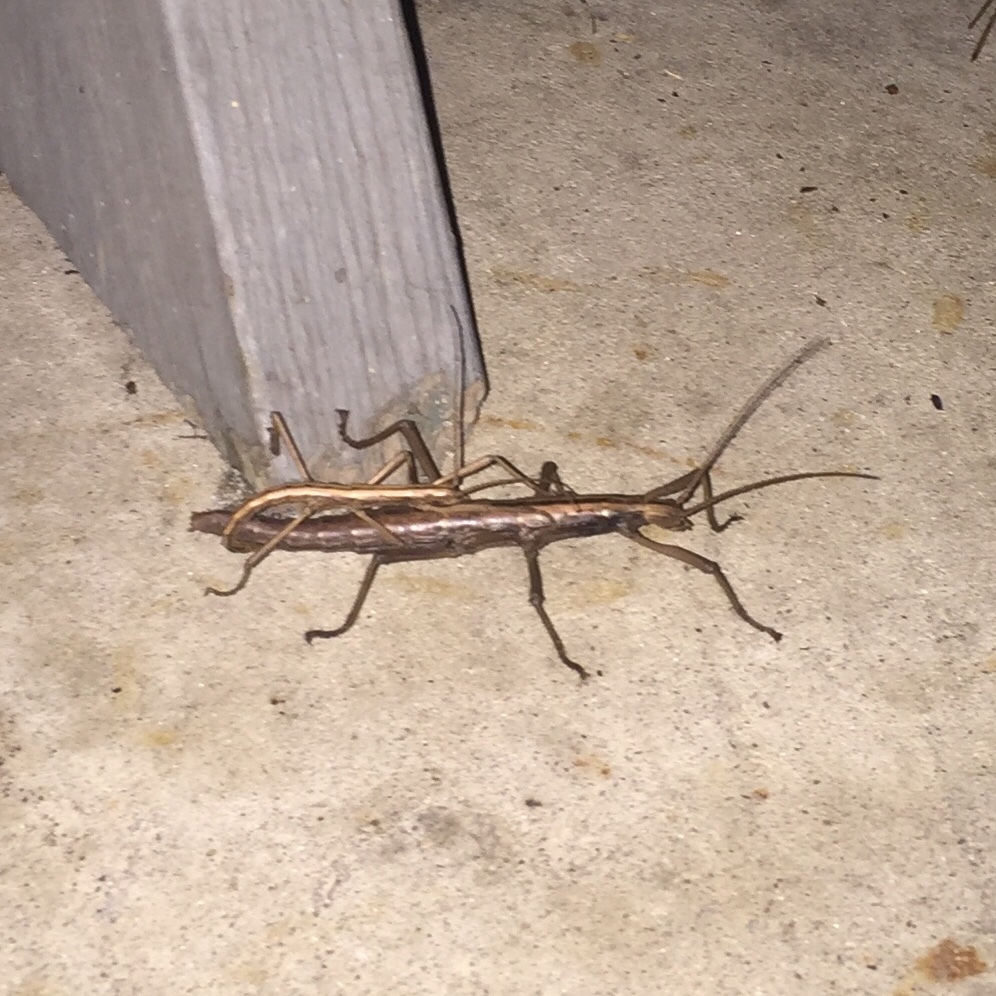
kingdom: Animalia
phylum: Arthropoda
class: Insecta
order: Phasmida
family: Pseudophasmatidae
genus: Anisomorpha
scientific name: Anisomorpha buprestoides
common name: Florida stick insect
